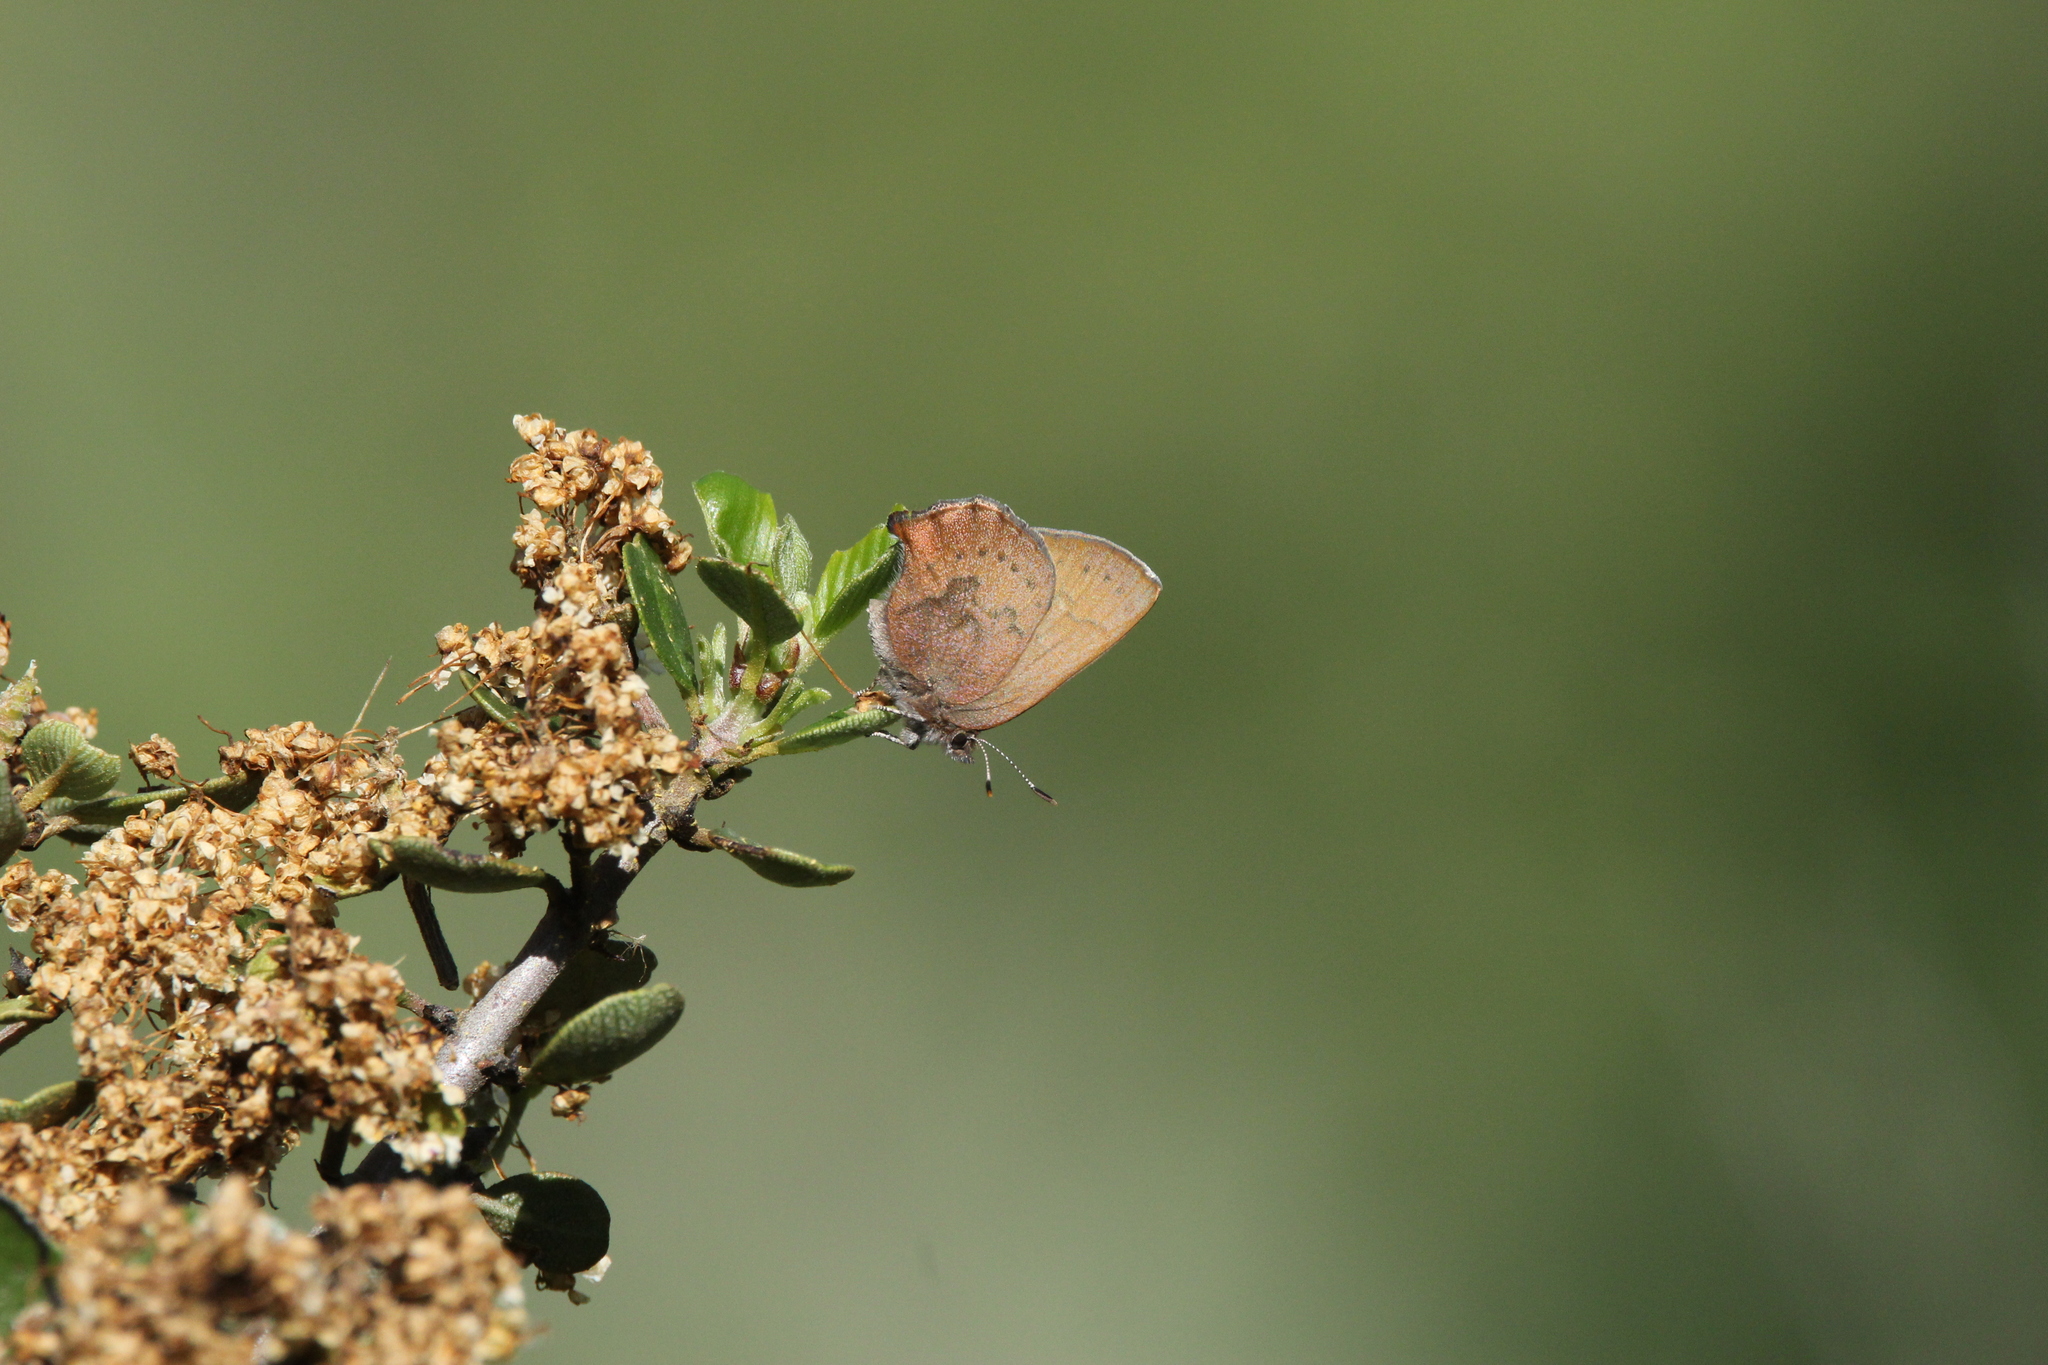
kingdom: Animalia
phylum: Arthropoda
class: Insecta
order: Lepidoptera
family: Lycaenidae
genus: Incisalia
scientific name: Incisalia irioides
